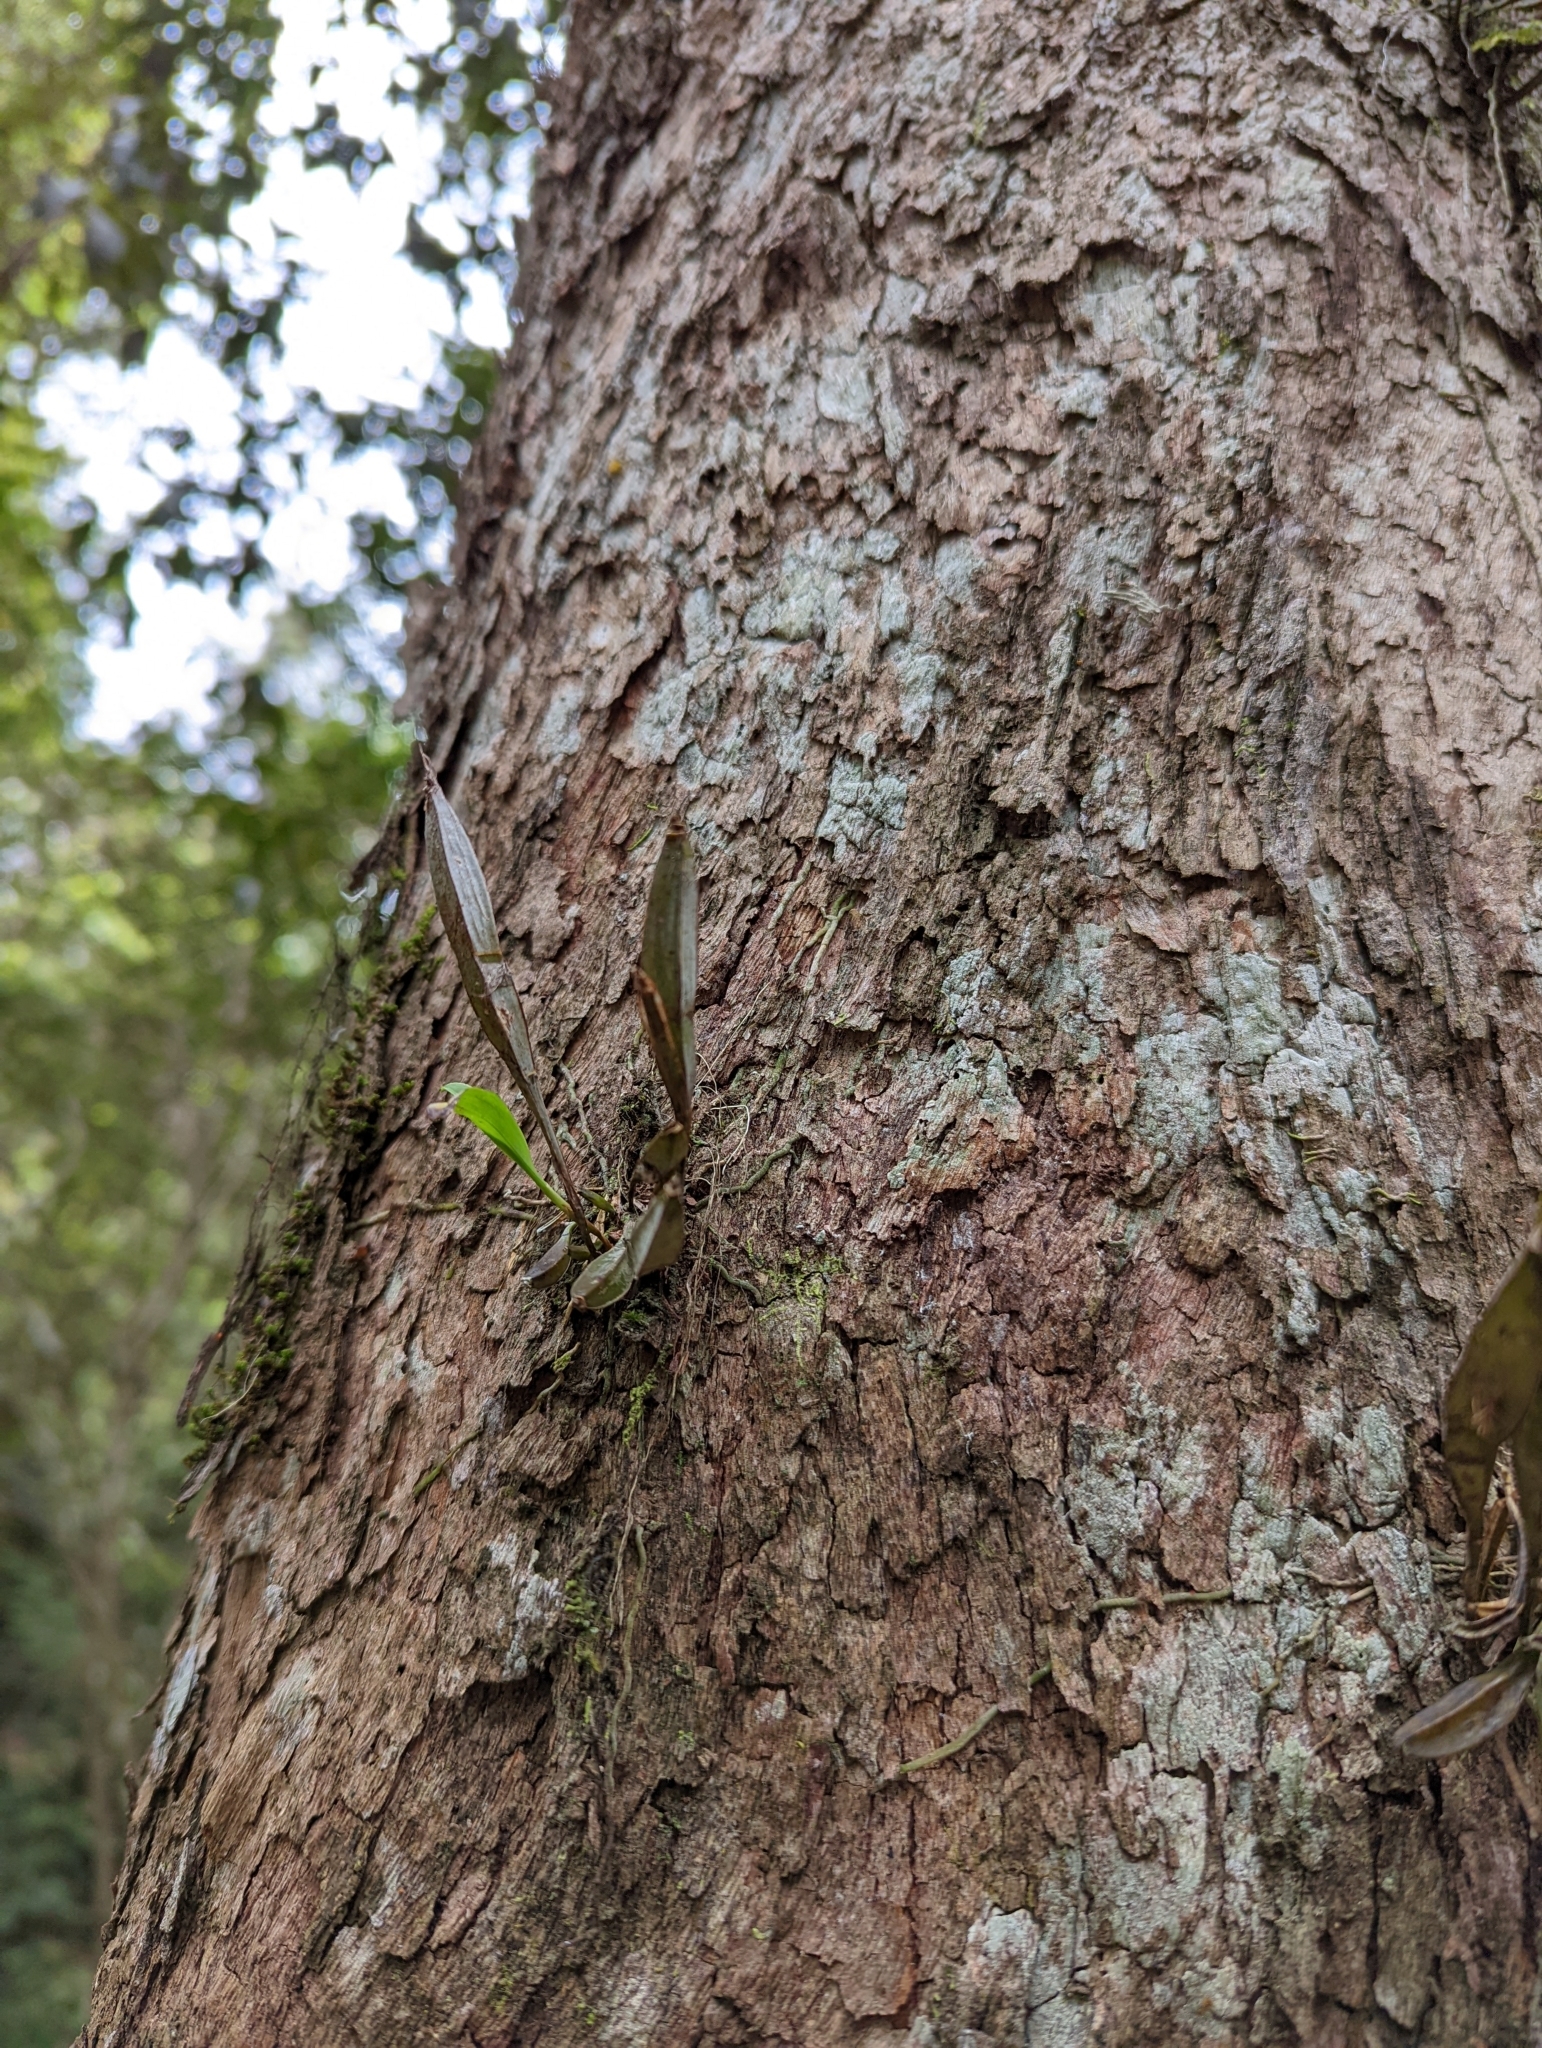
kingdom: Plantae
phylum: Tracheophyta
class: Liliopsida
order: Asparagales
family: Orchidaceae
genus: Dendrobium
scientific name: Dendrobium tetragonum
